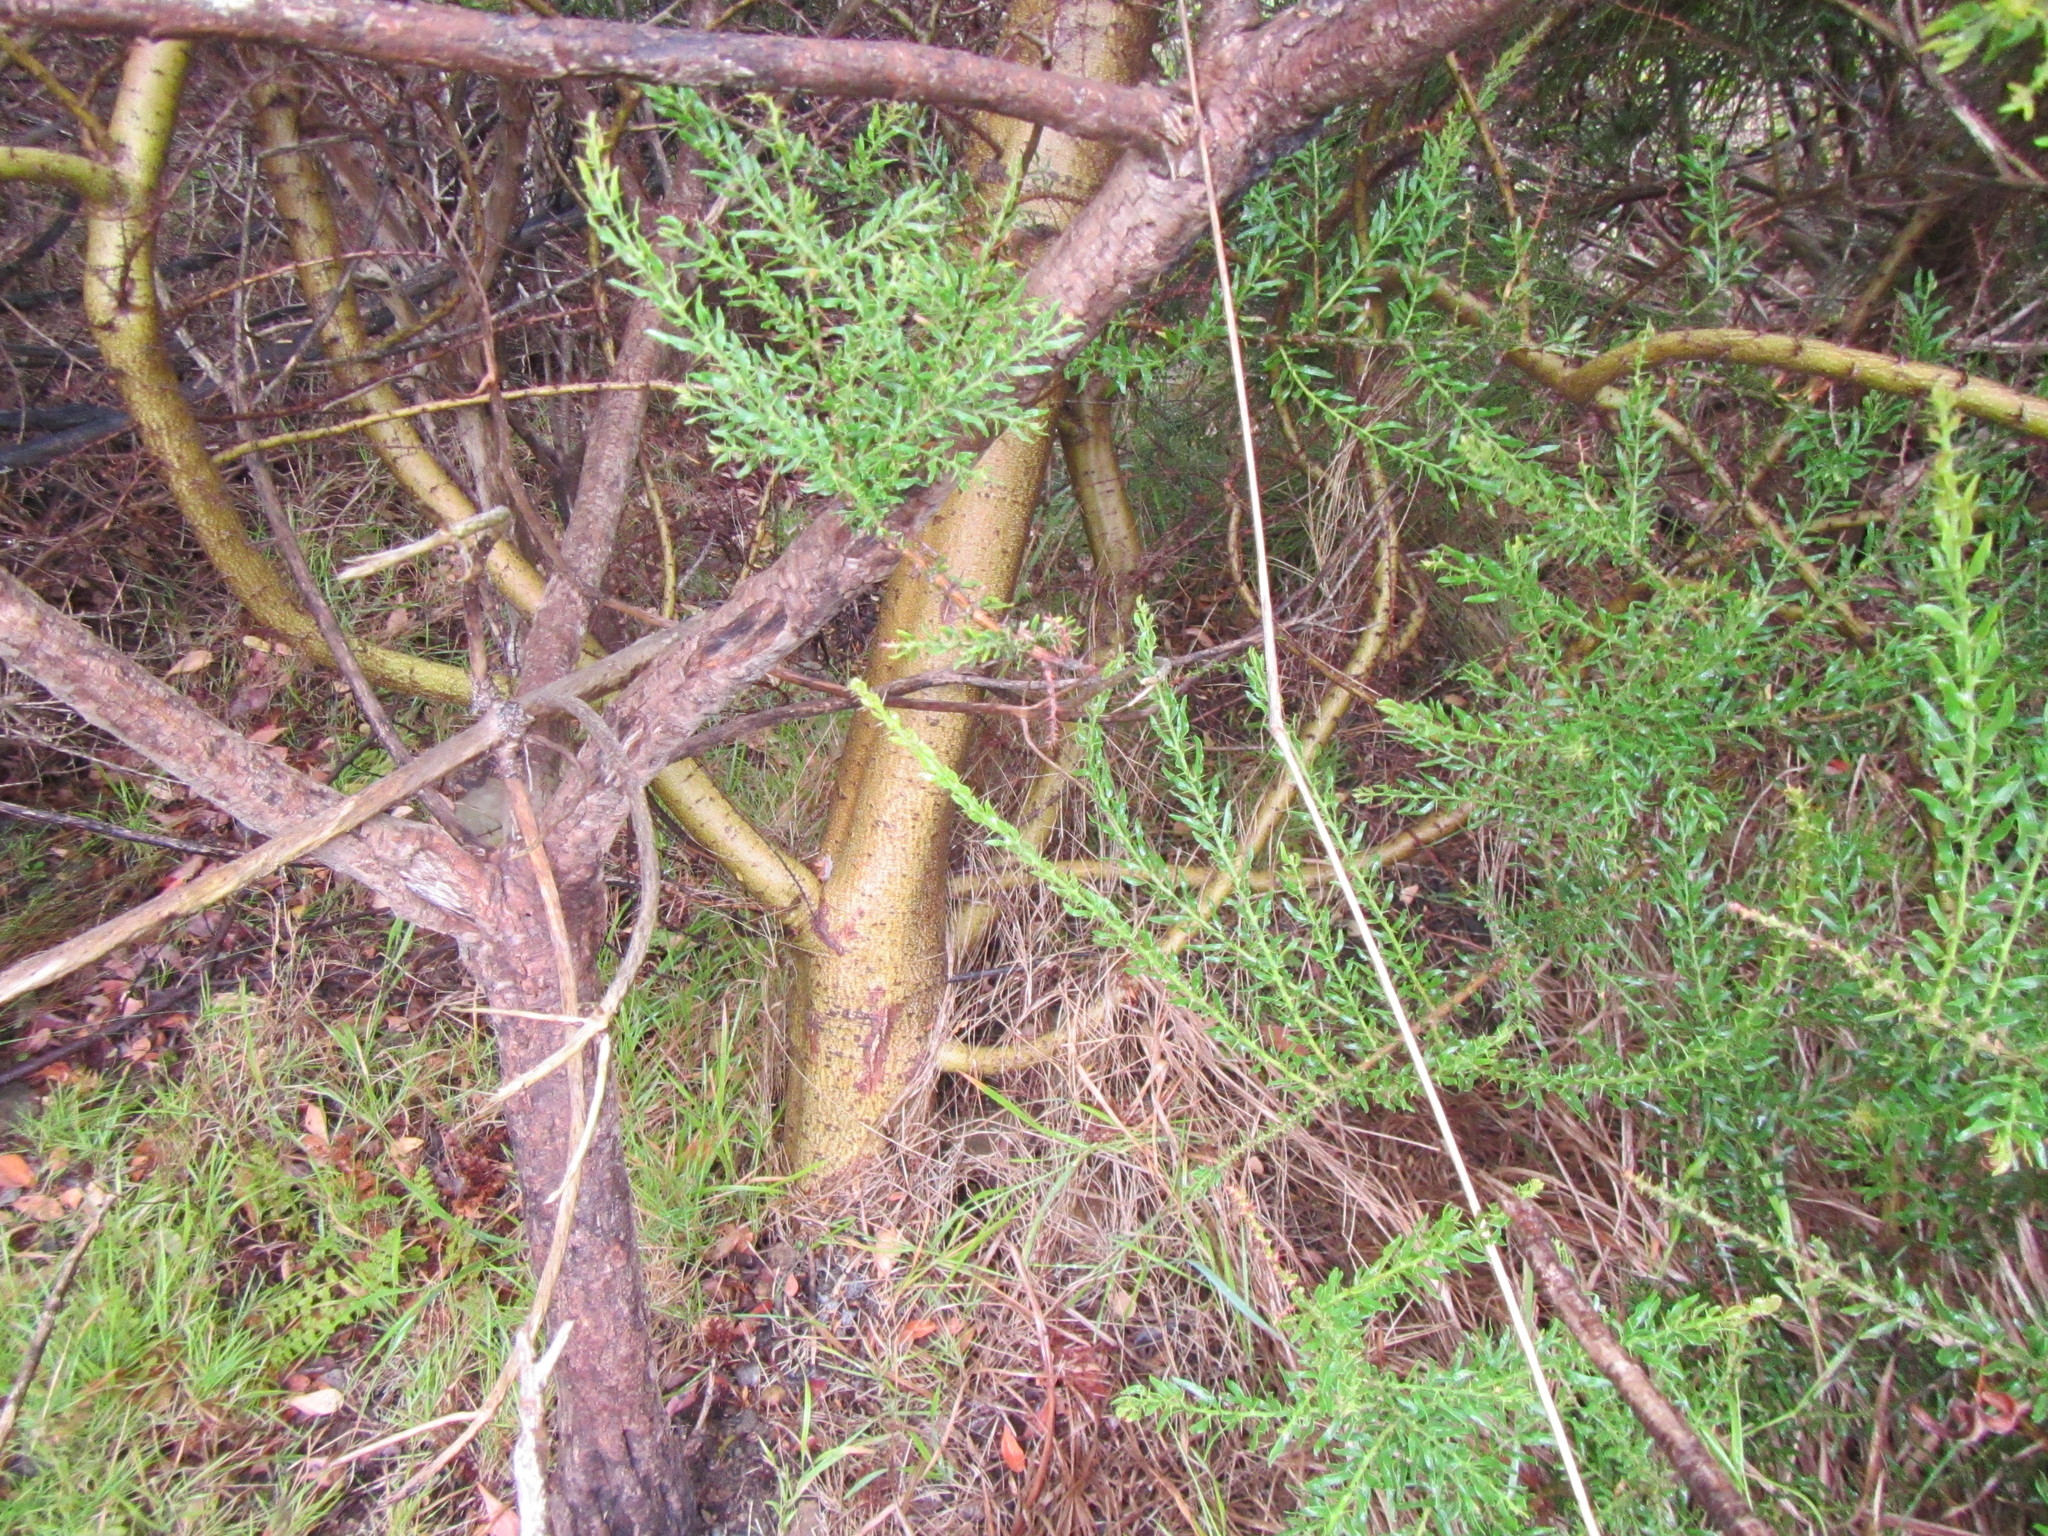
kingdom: Plantae
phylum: Tracheophyta
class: Magnoliopsida
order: Fabales
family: Fabaceae
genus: Acacia
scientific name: Acacia paradoxa
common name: Paradox acacia
